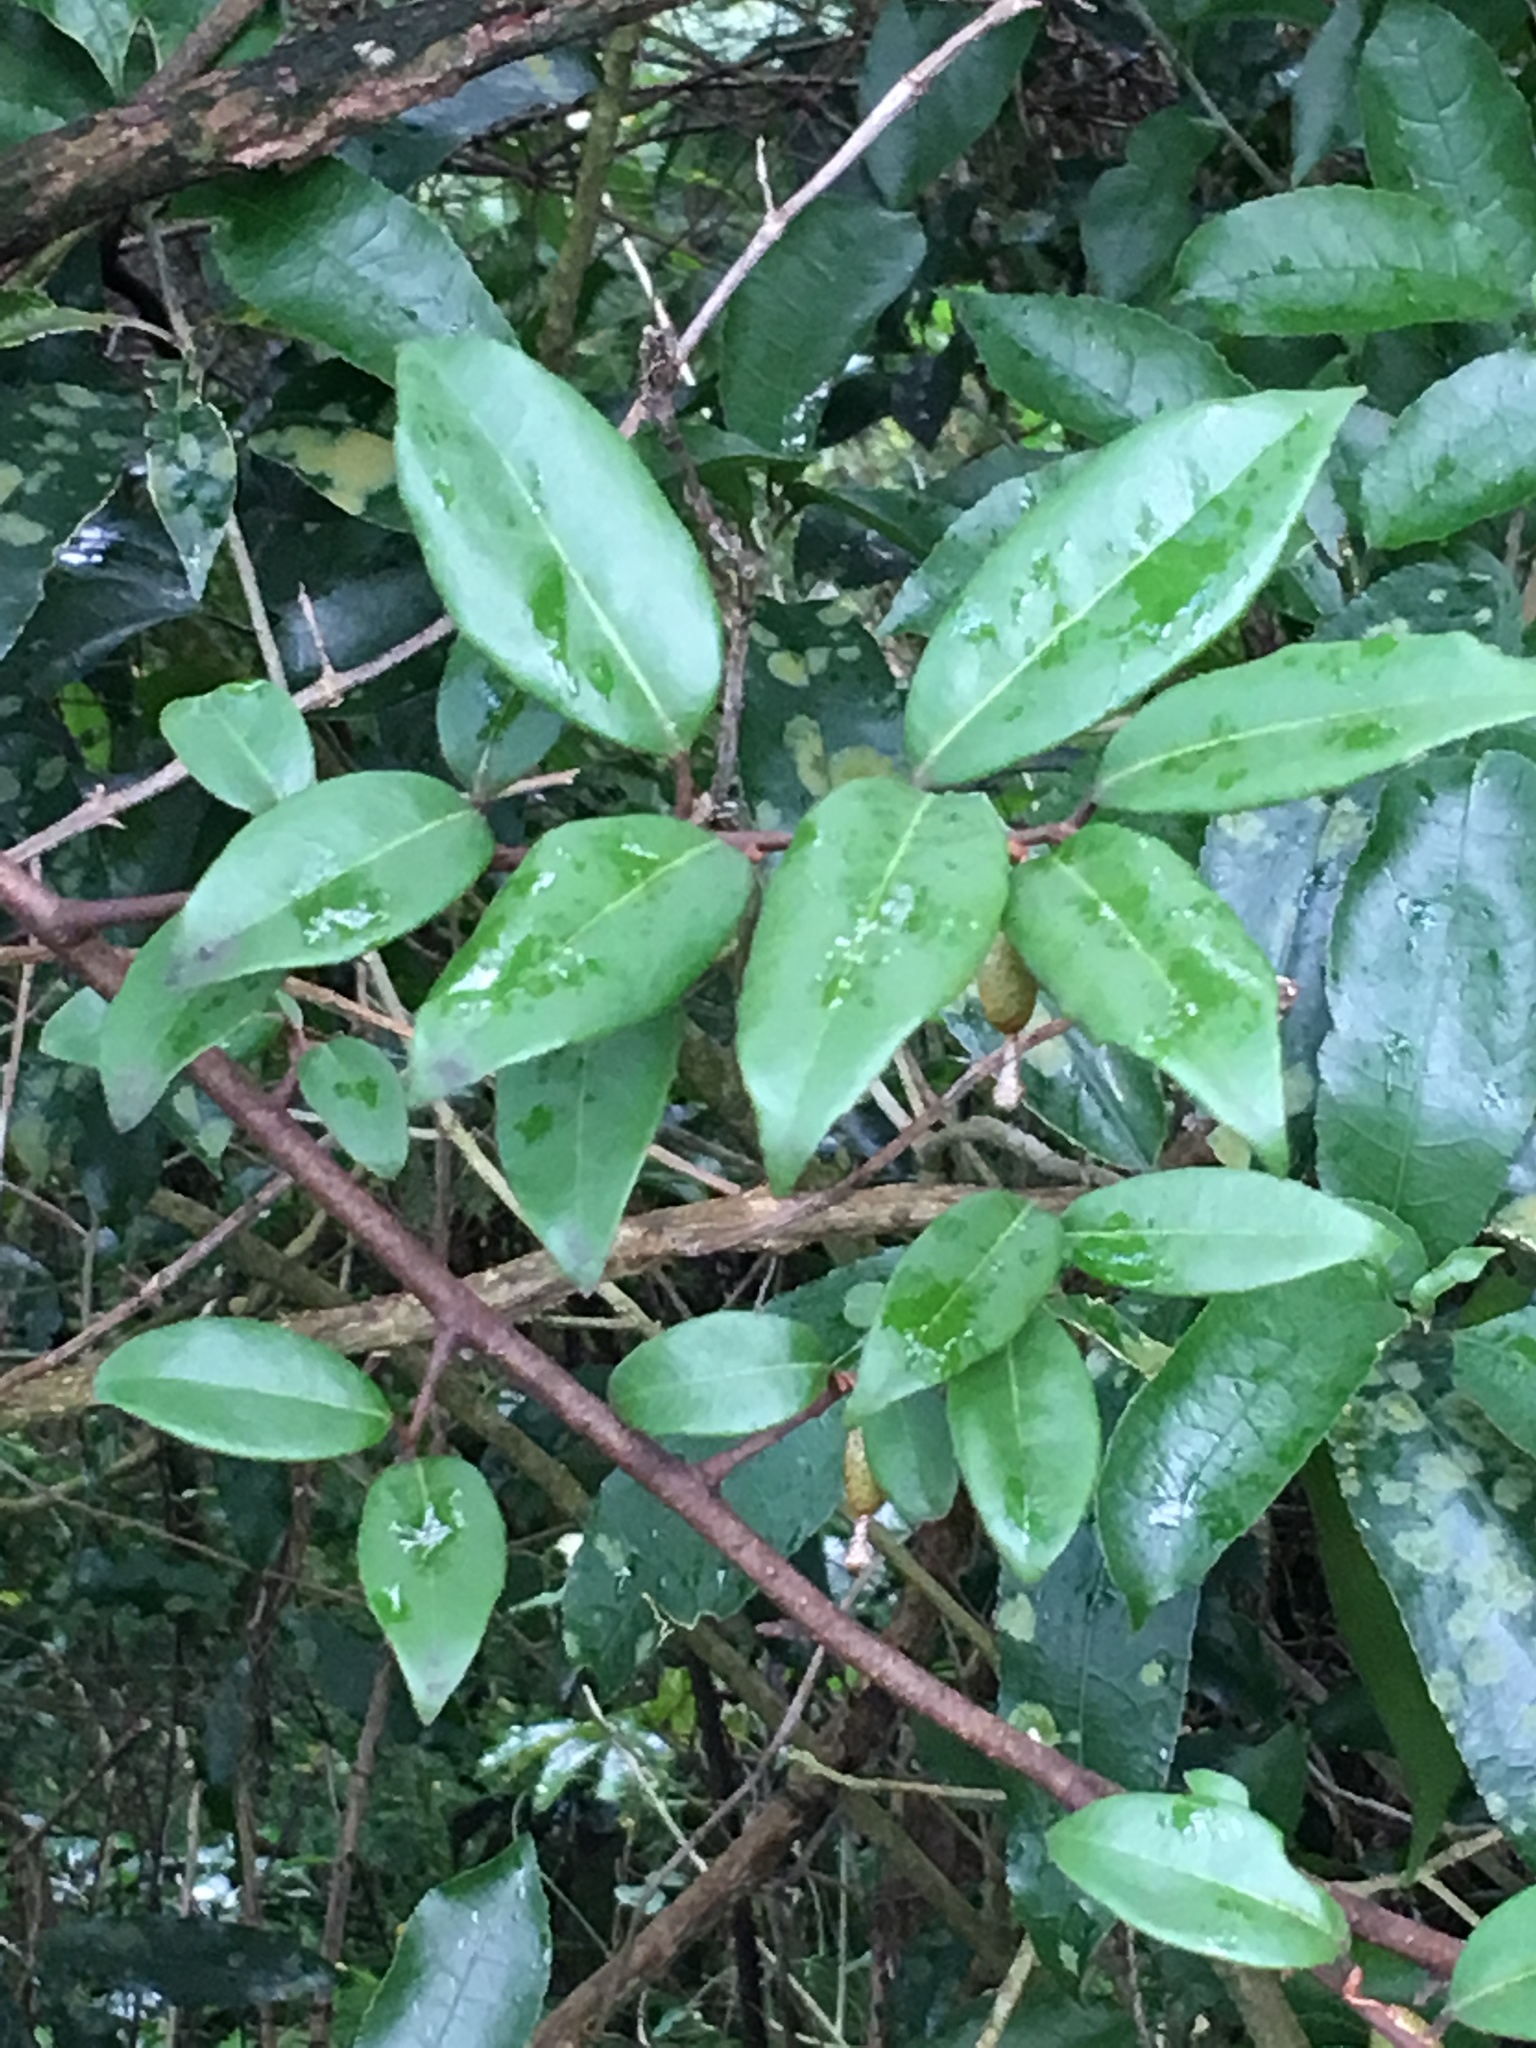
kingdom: Plantae
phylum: Tracheophyta
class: Magnoliopsida
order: Rosales
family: Elaeagnaceae
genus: Elaeagnus
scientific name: Elaeagnus reflexa
